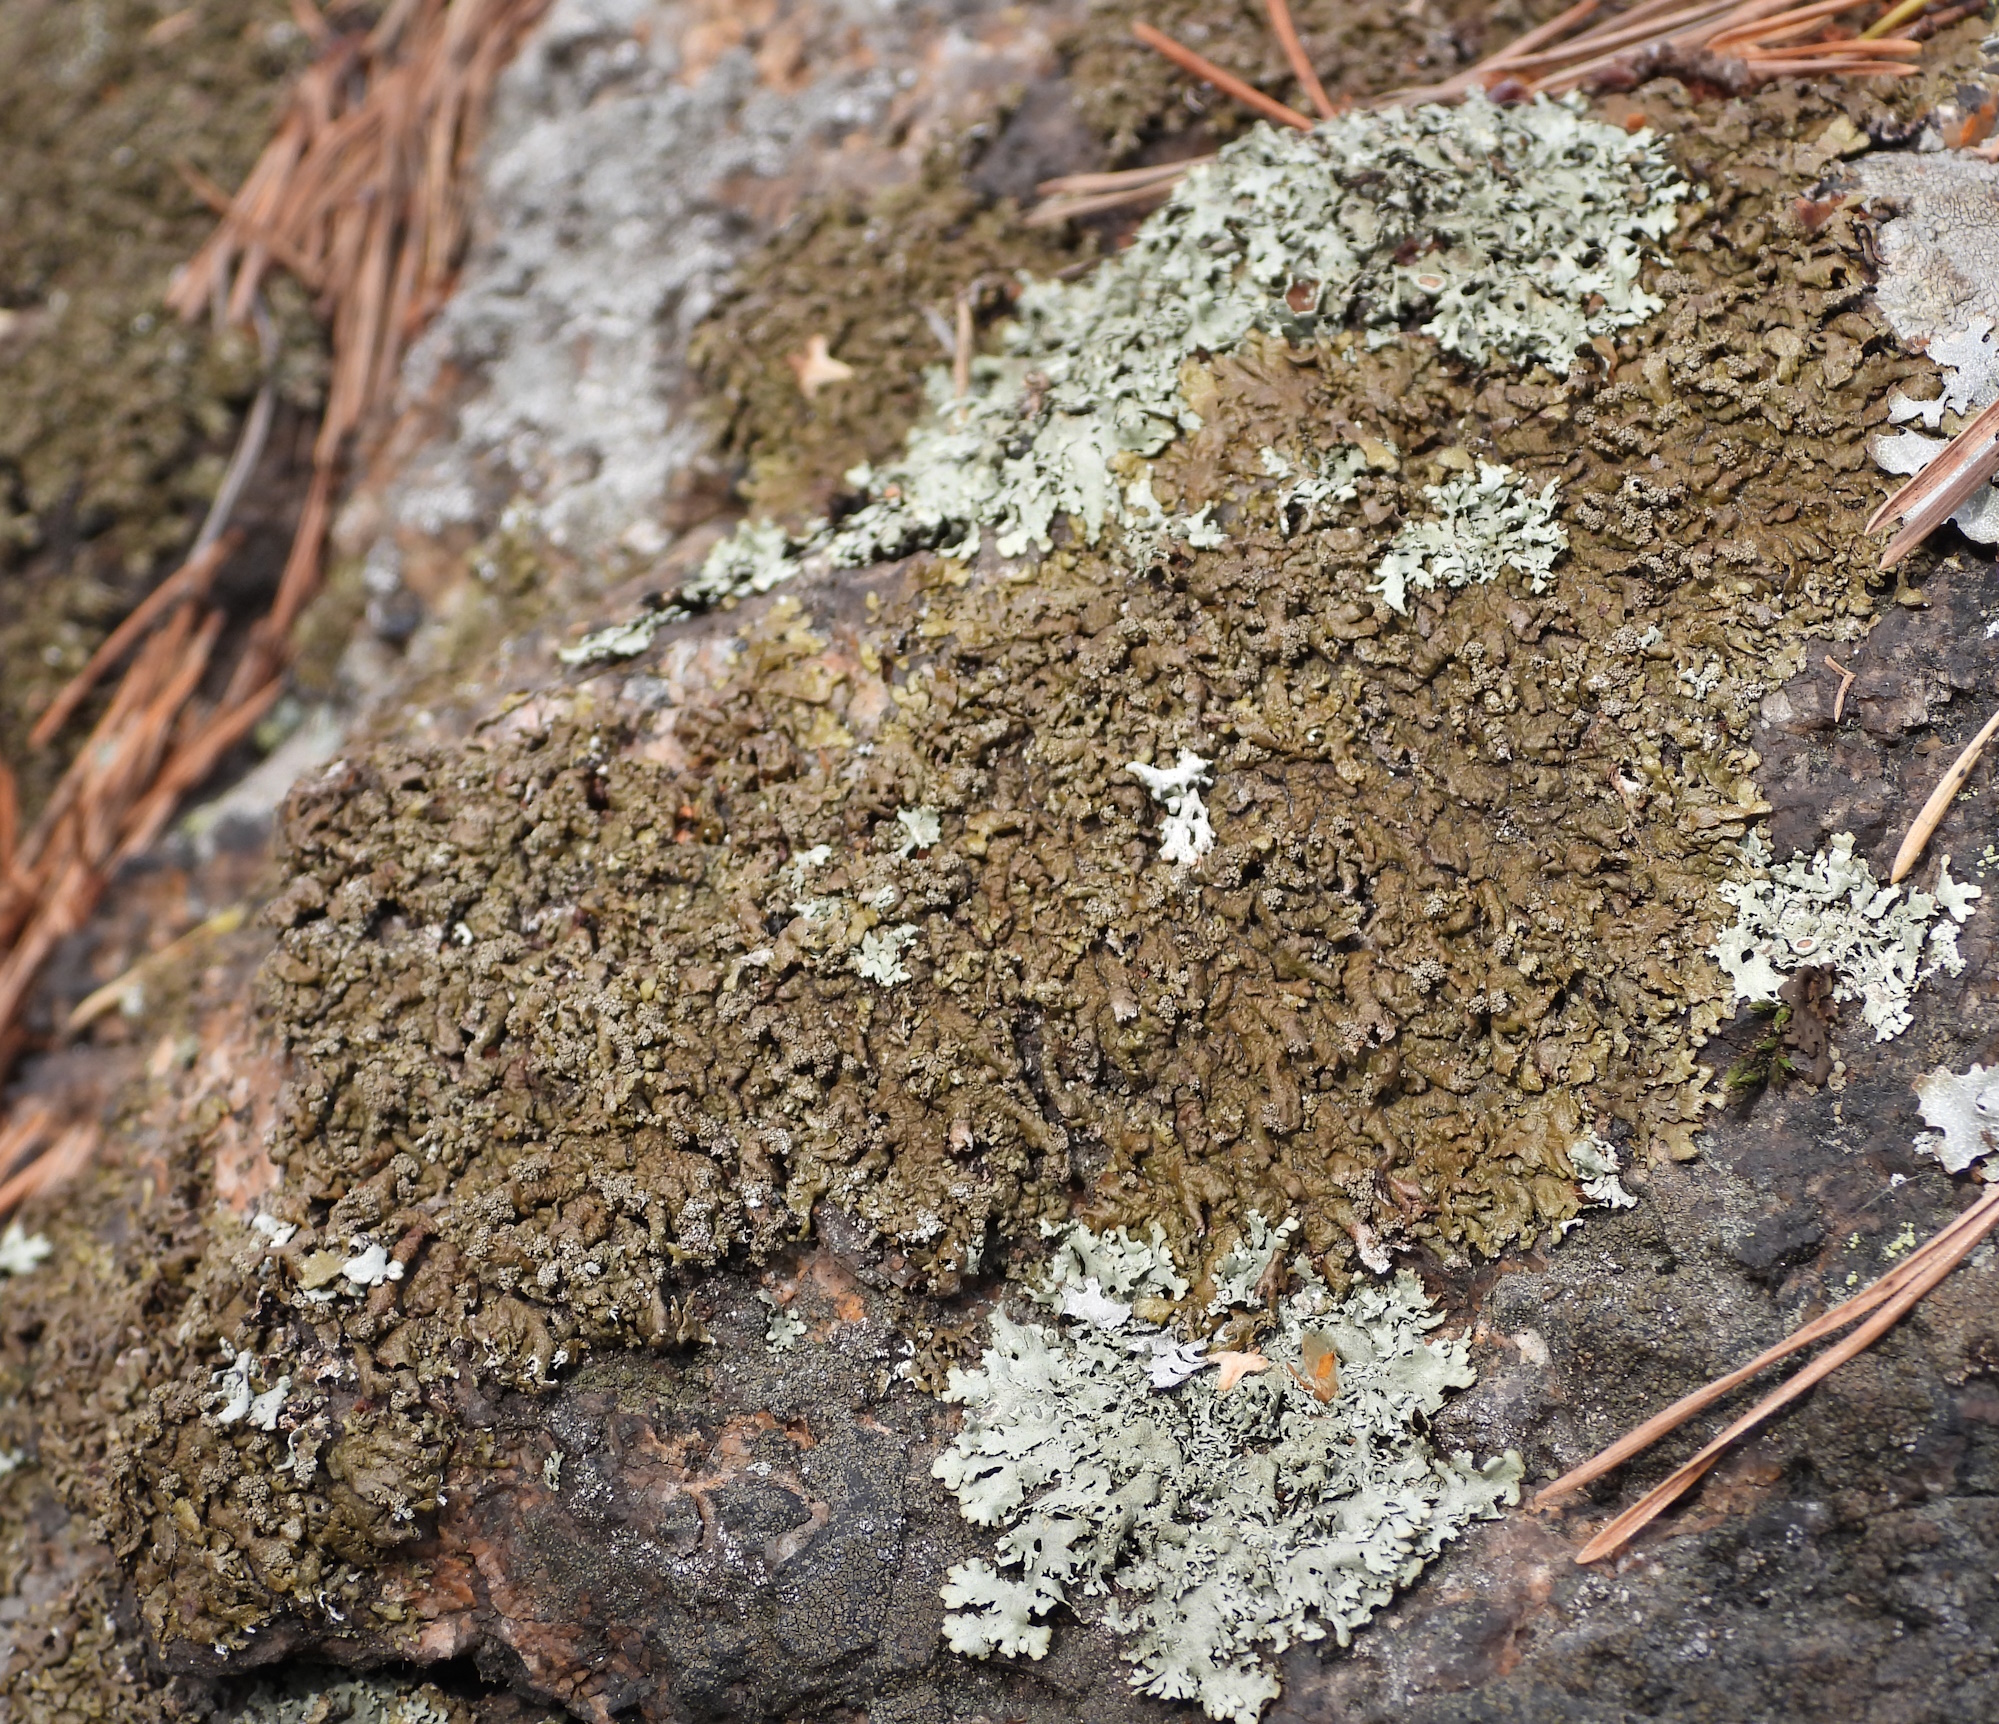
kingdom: Fungi
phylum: Ascomycota
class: Lecanoromycetes
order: Lecanorales
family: Parmeliaceae
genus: Xanthoparmelia
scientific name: Xanthoparmelia loxodes
